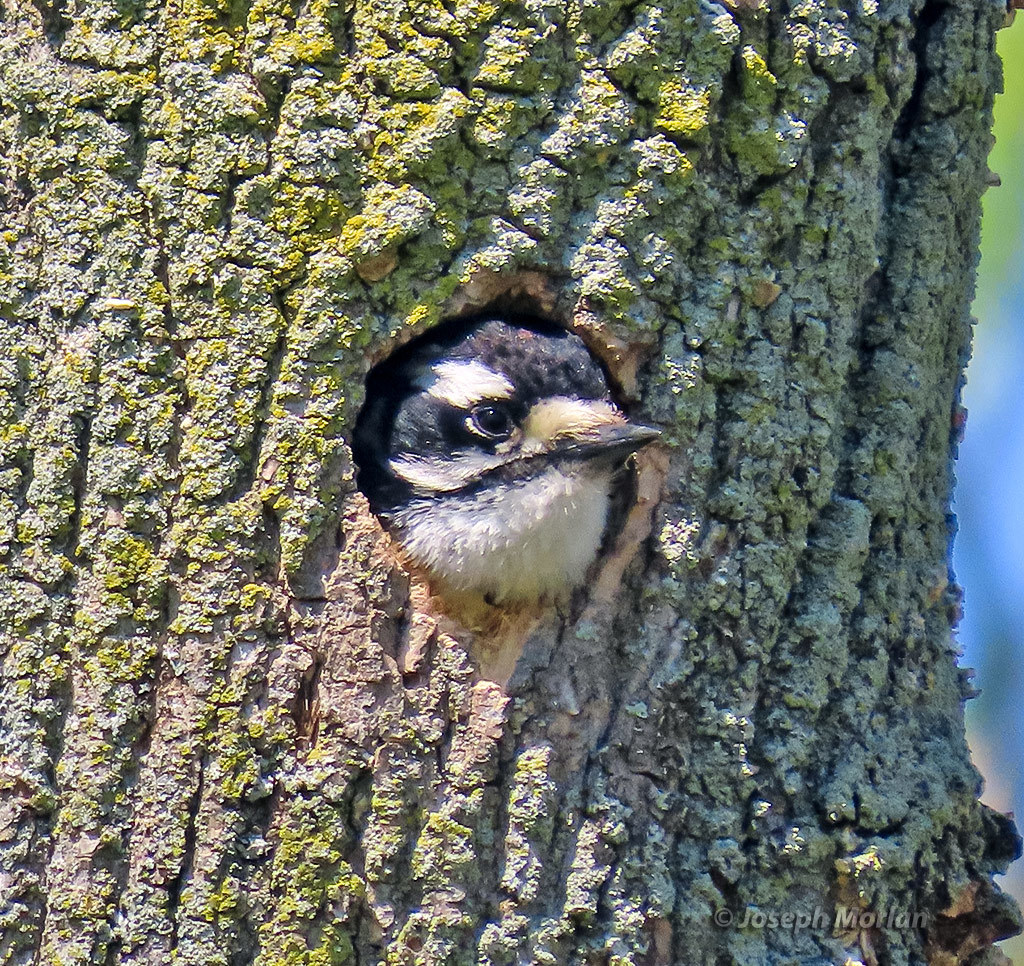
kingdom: Animalia
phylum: Chordata
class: Aves
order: Piciformes
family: Picidae
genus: Dryobates
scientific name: Dryobates pubescens
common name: Downy woodpecker
